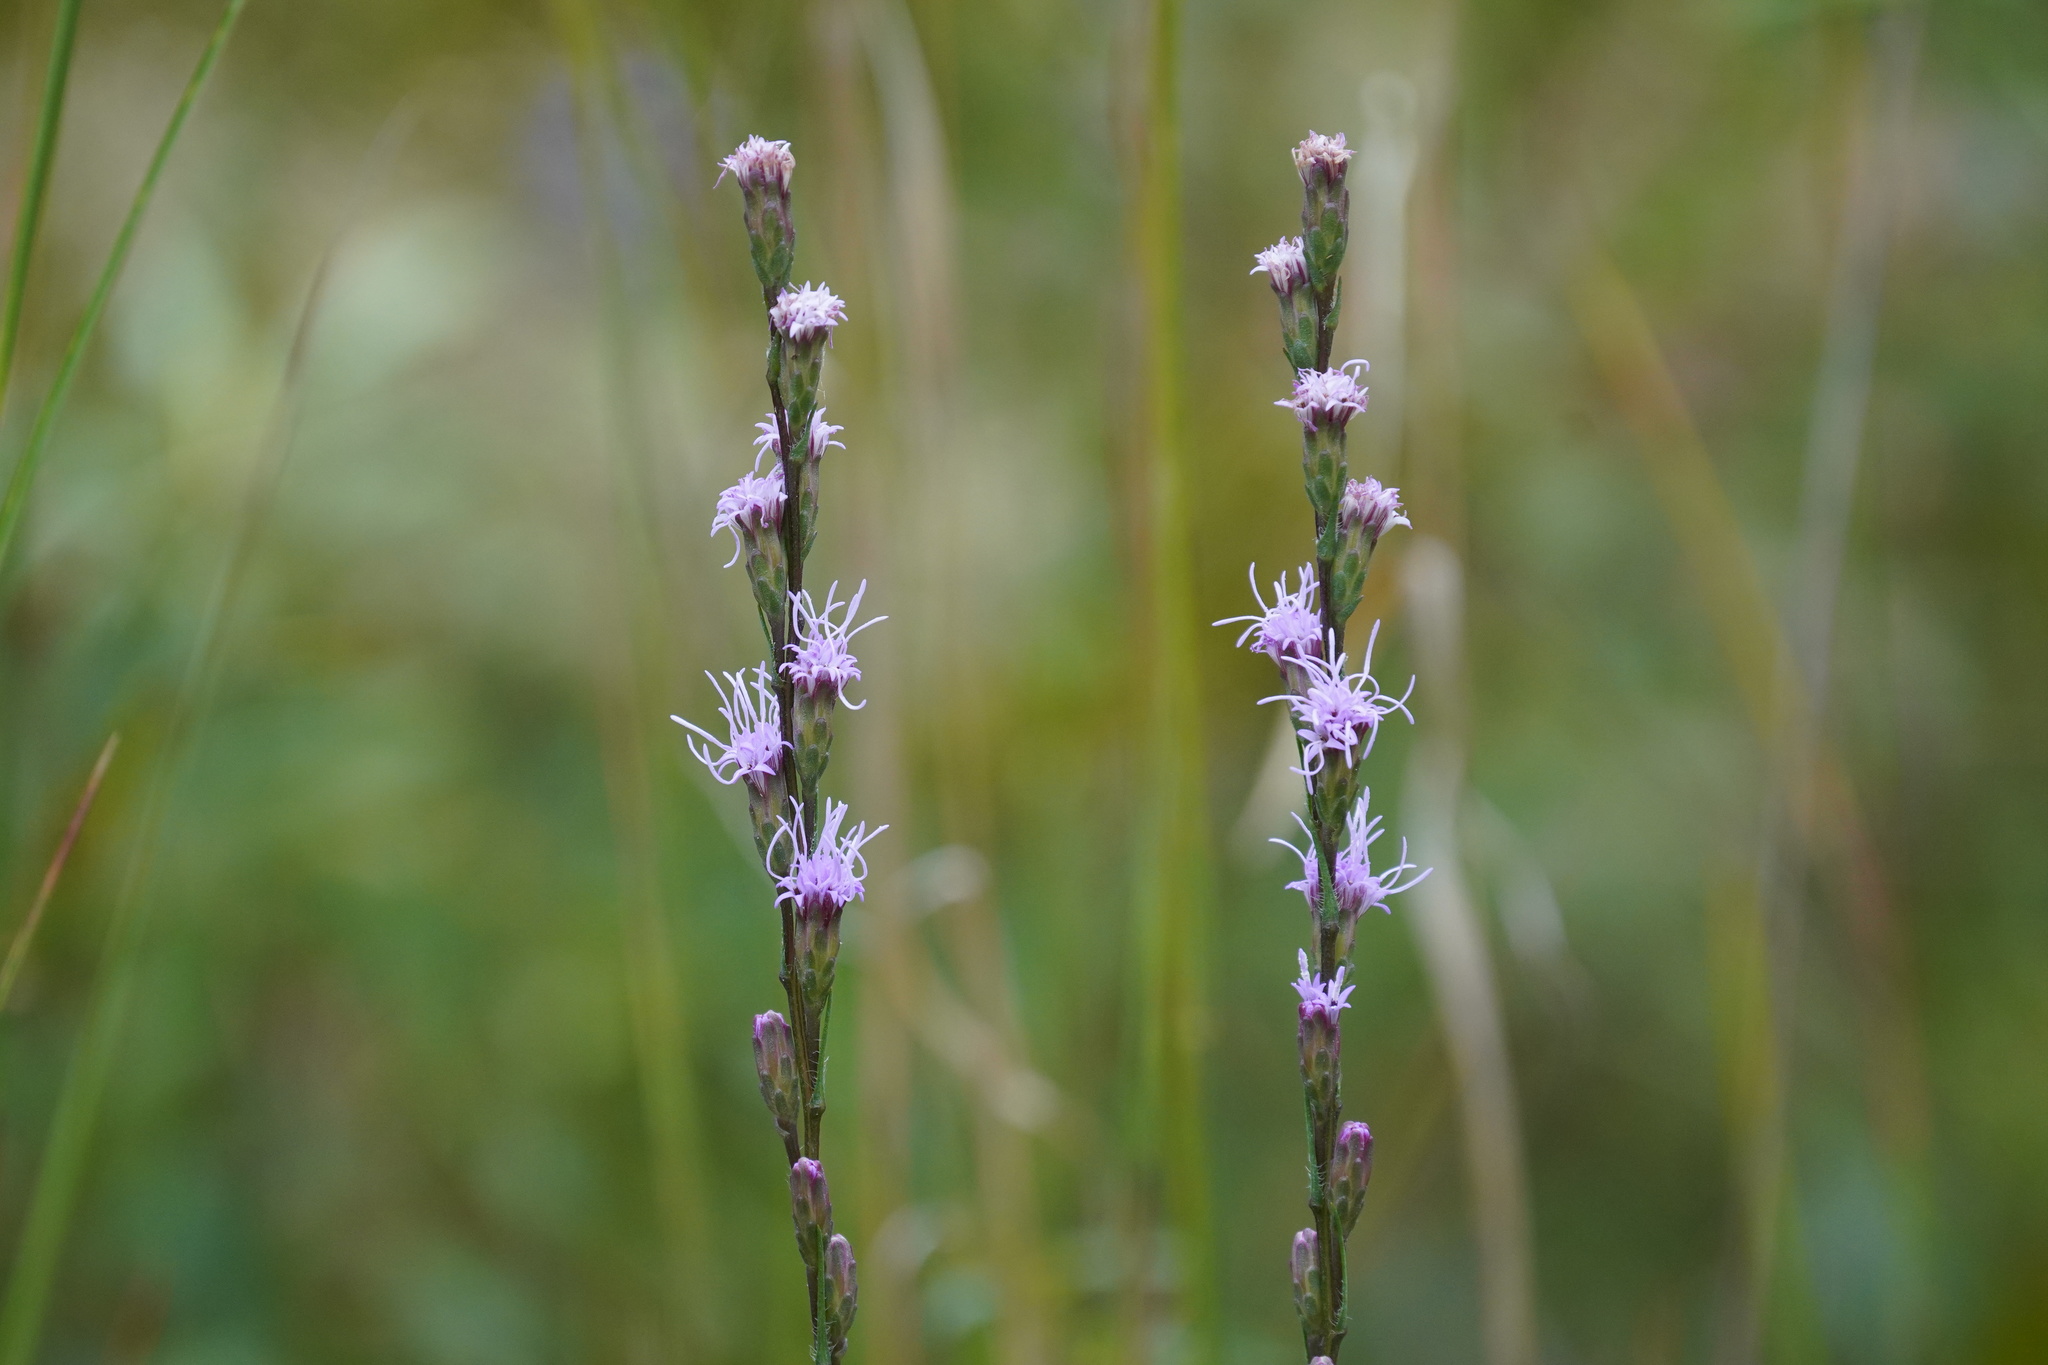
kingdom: Plantae
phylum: Tracheophyta
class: Magnoliopsida
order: Asterales
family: Asteraceae
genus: Liatris
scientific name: Liatris pilosa
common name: Grass-leaf gayfeather
